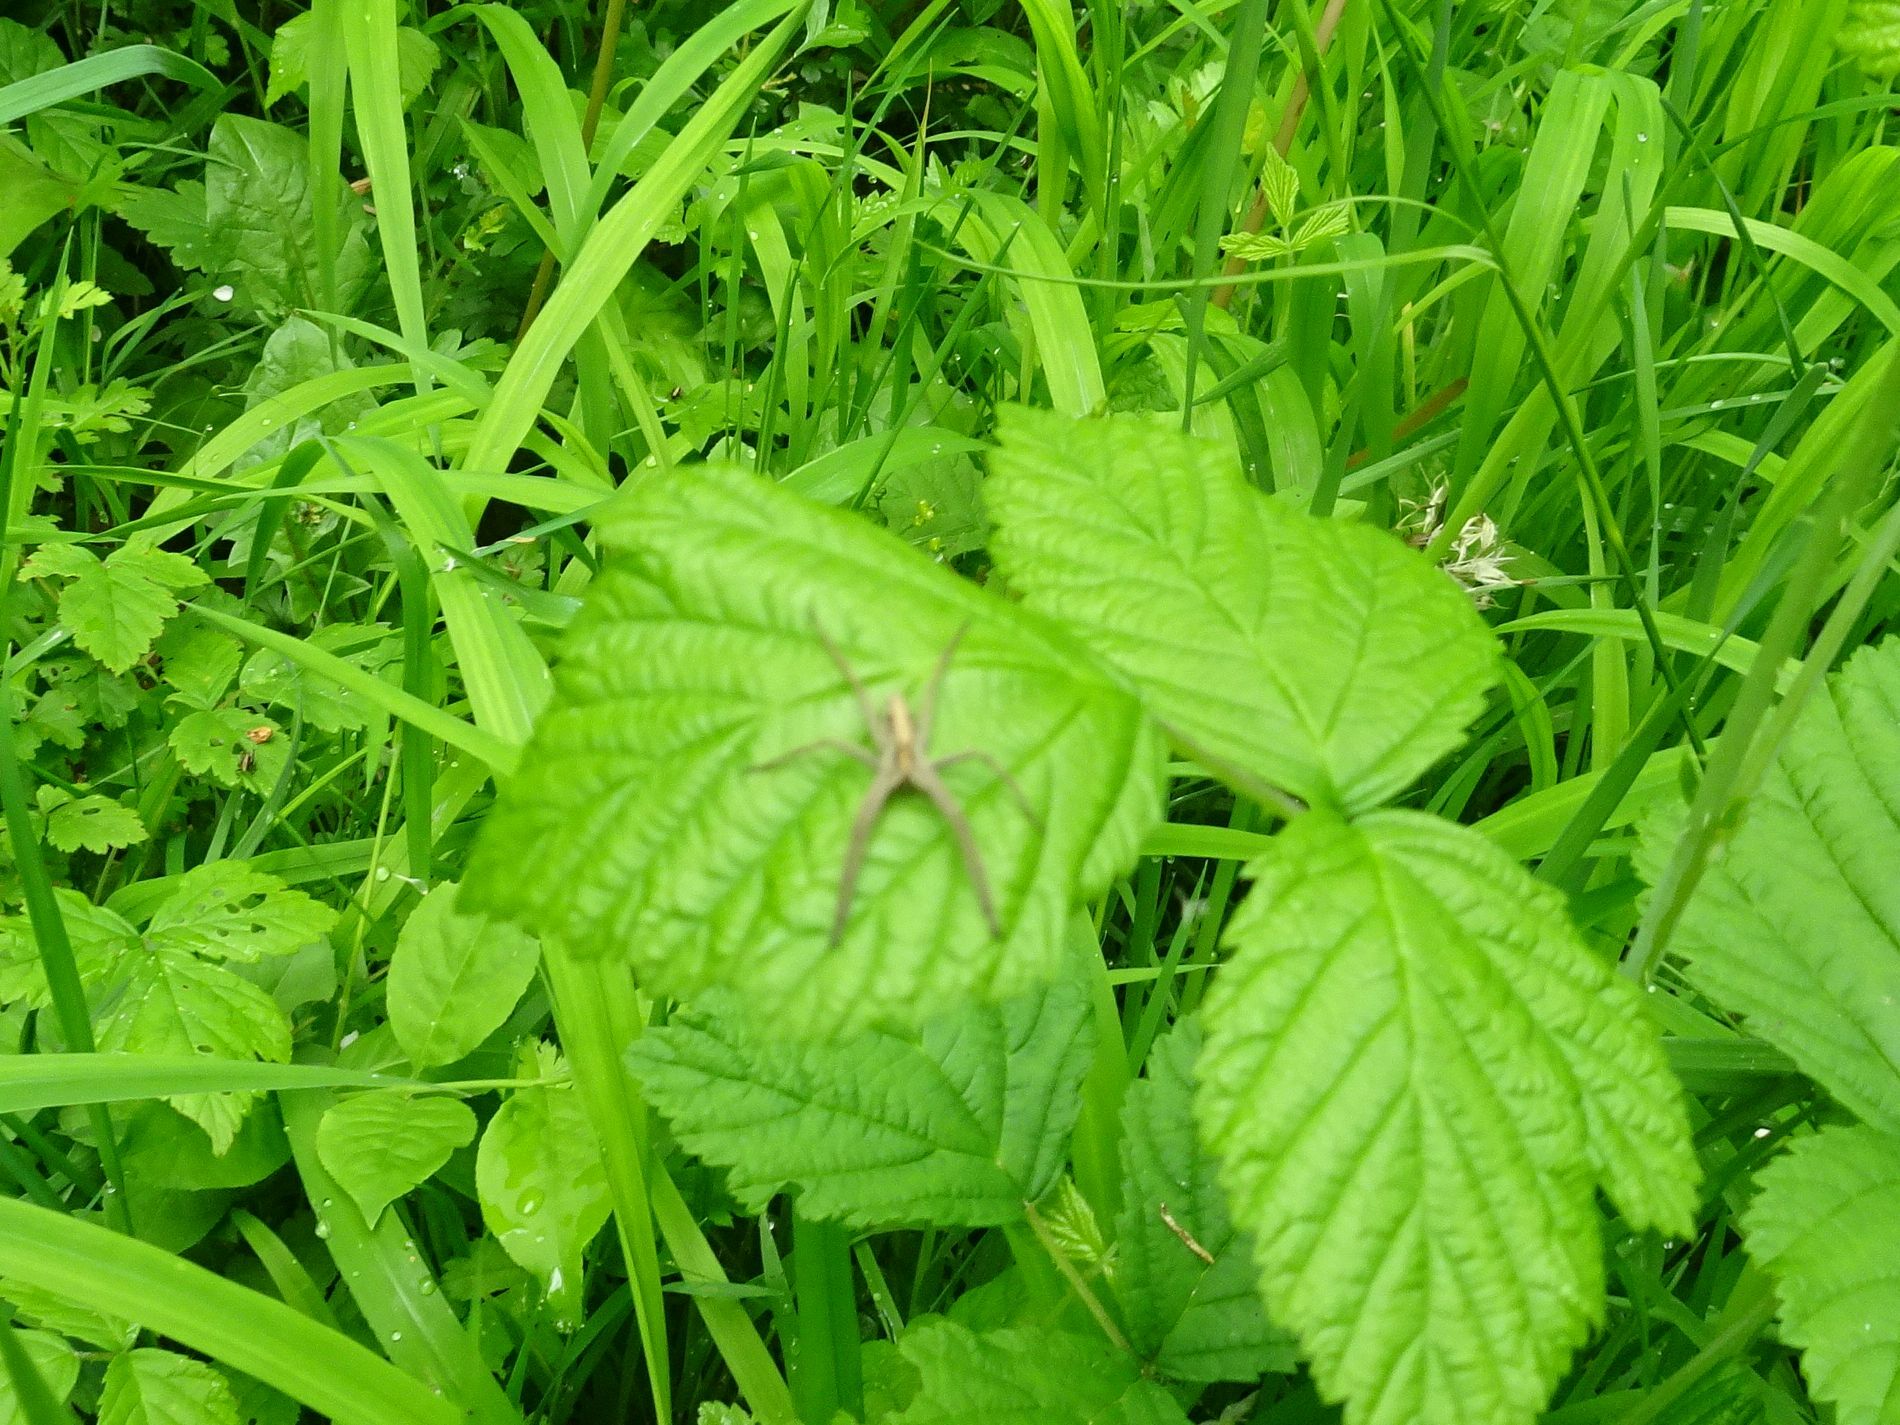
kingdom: Animalia
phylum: Arthropoda
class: Arachnida
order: Araneae
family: Pisauridae
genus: Pisaura
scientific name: Pisaura mirabilis
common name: Tent spider
